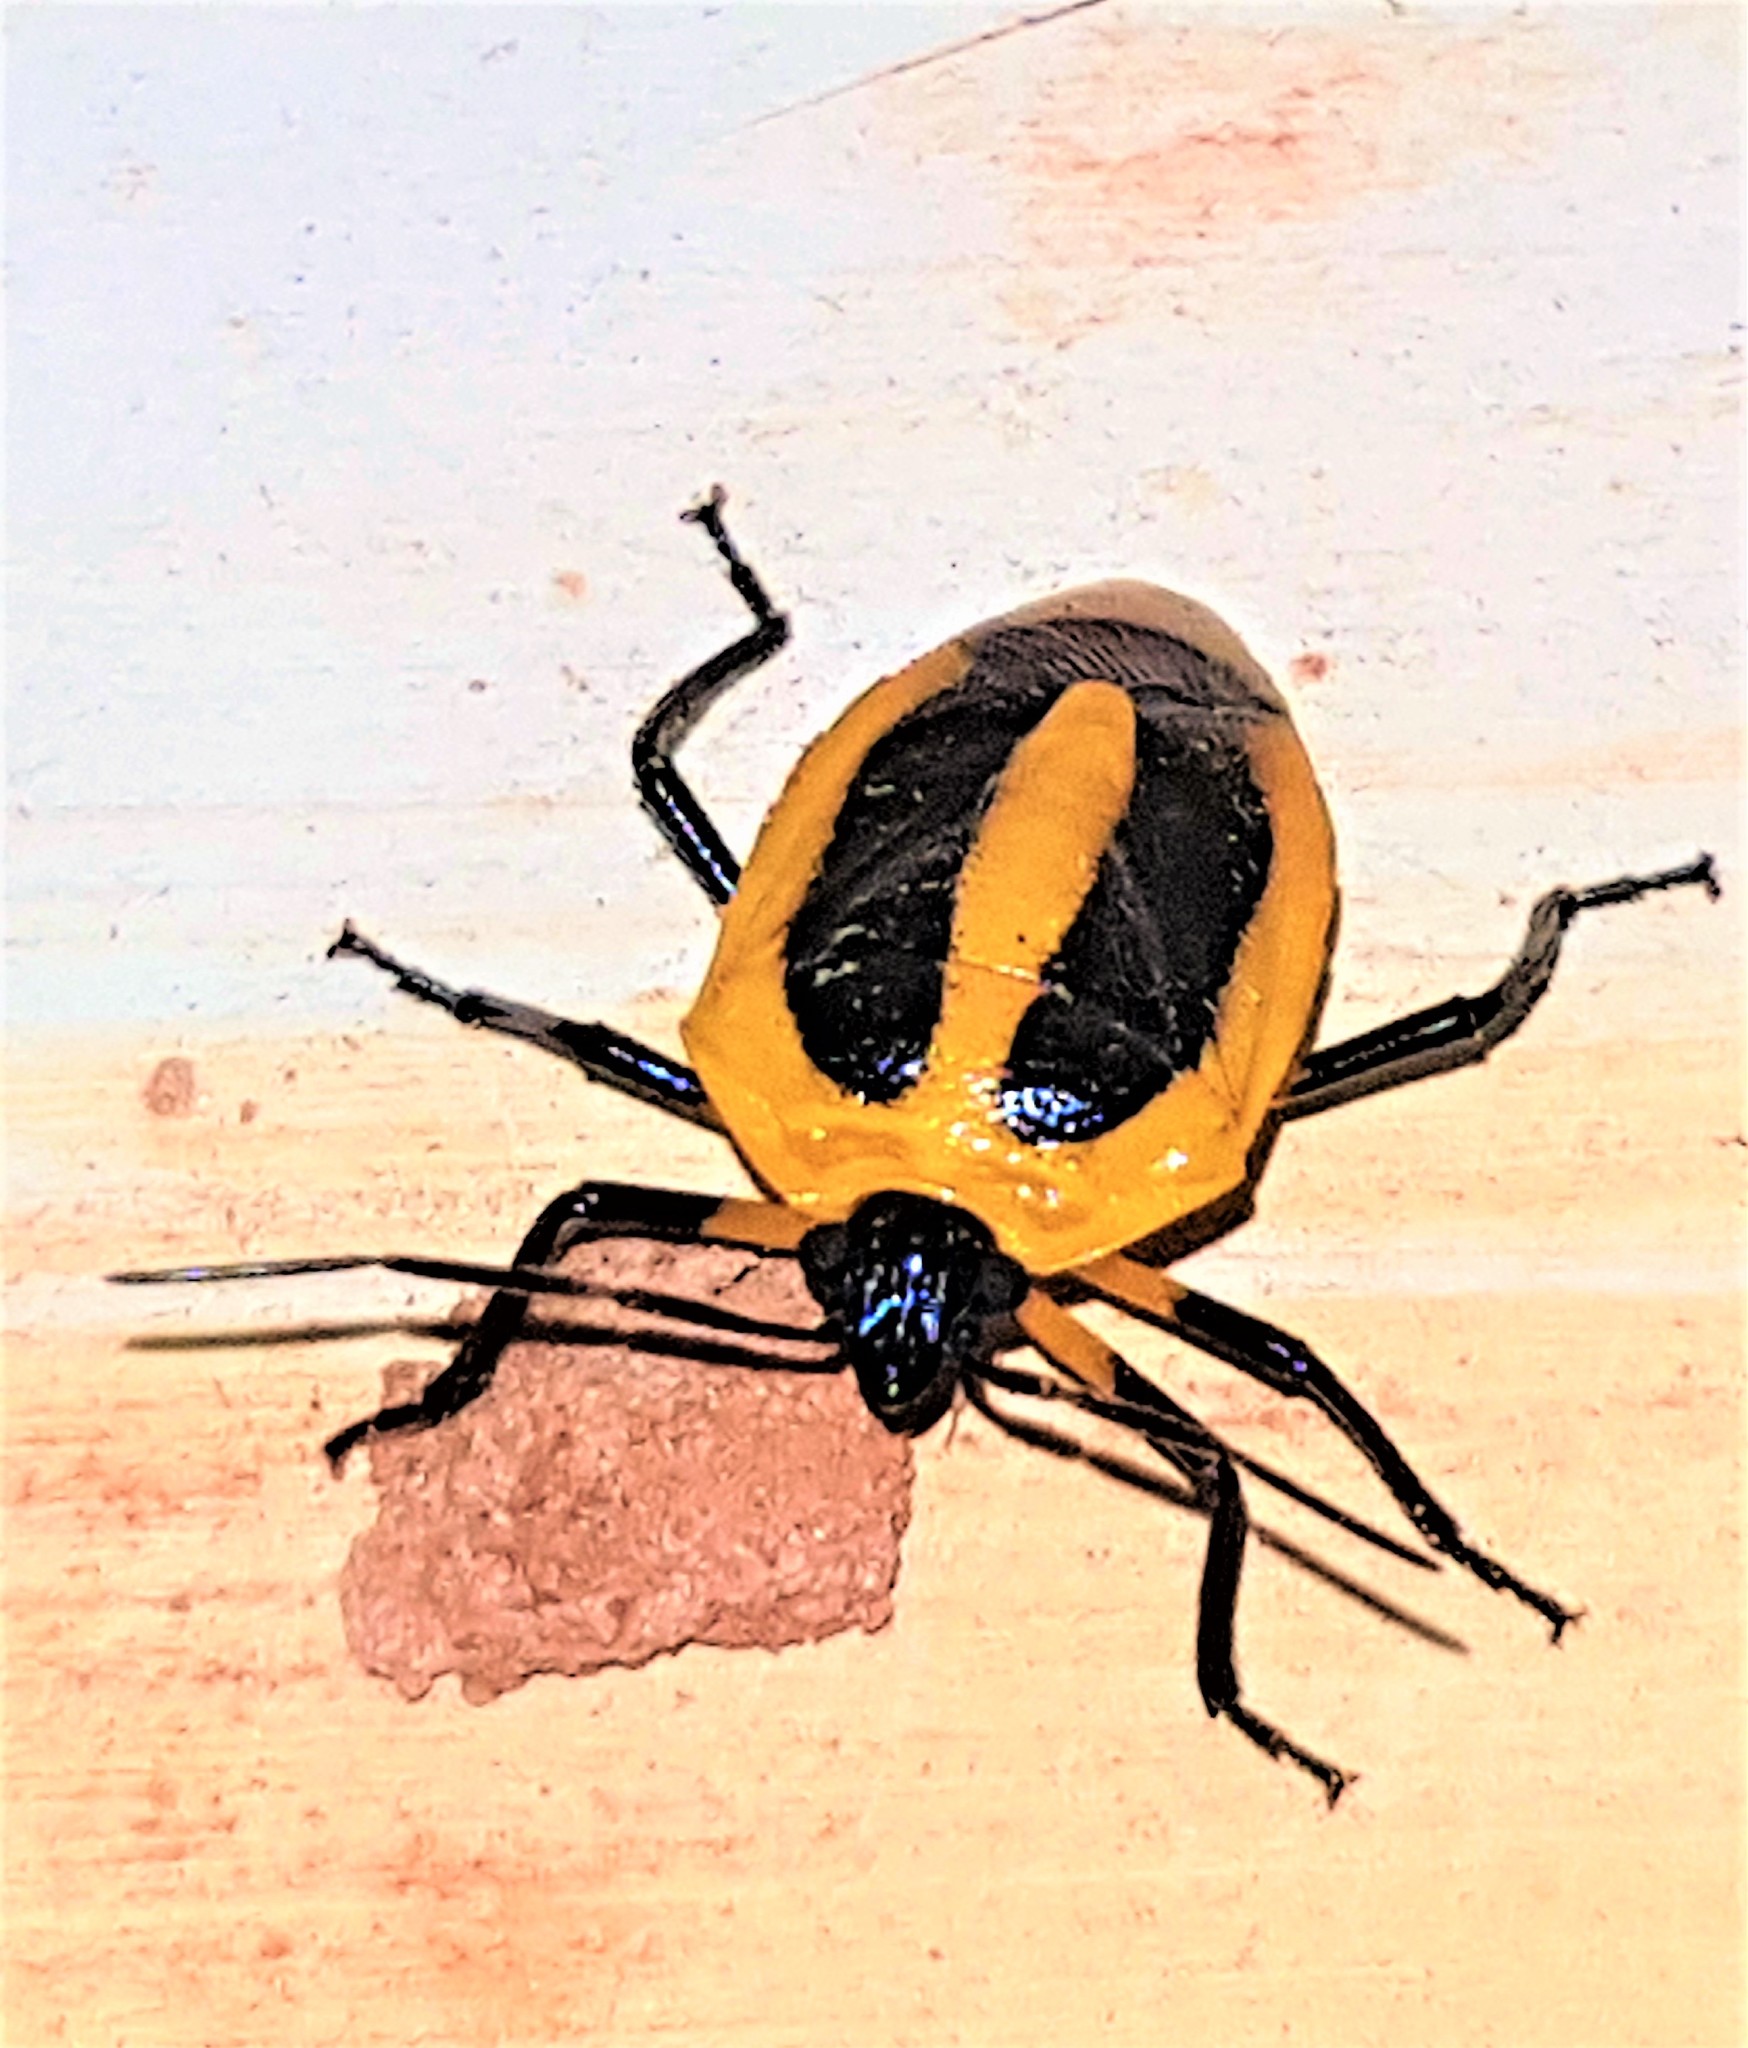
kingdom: Animalia
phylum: Arthropoda
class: Insecta
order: Hemiptera
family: Pentatomidae
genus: Arocera
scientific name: Arocera aequinoxialis
